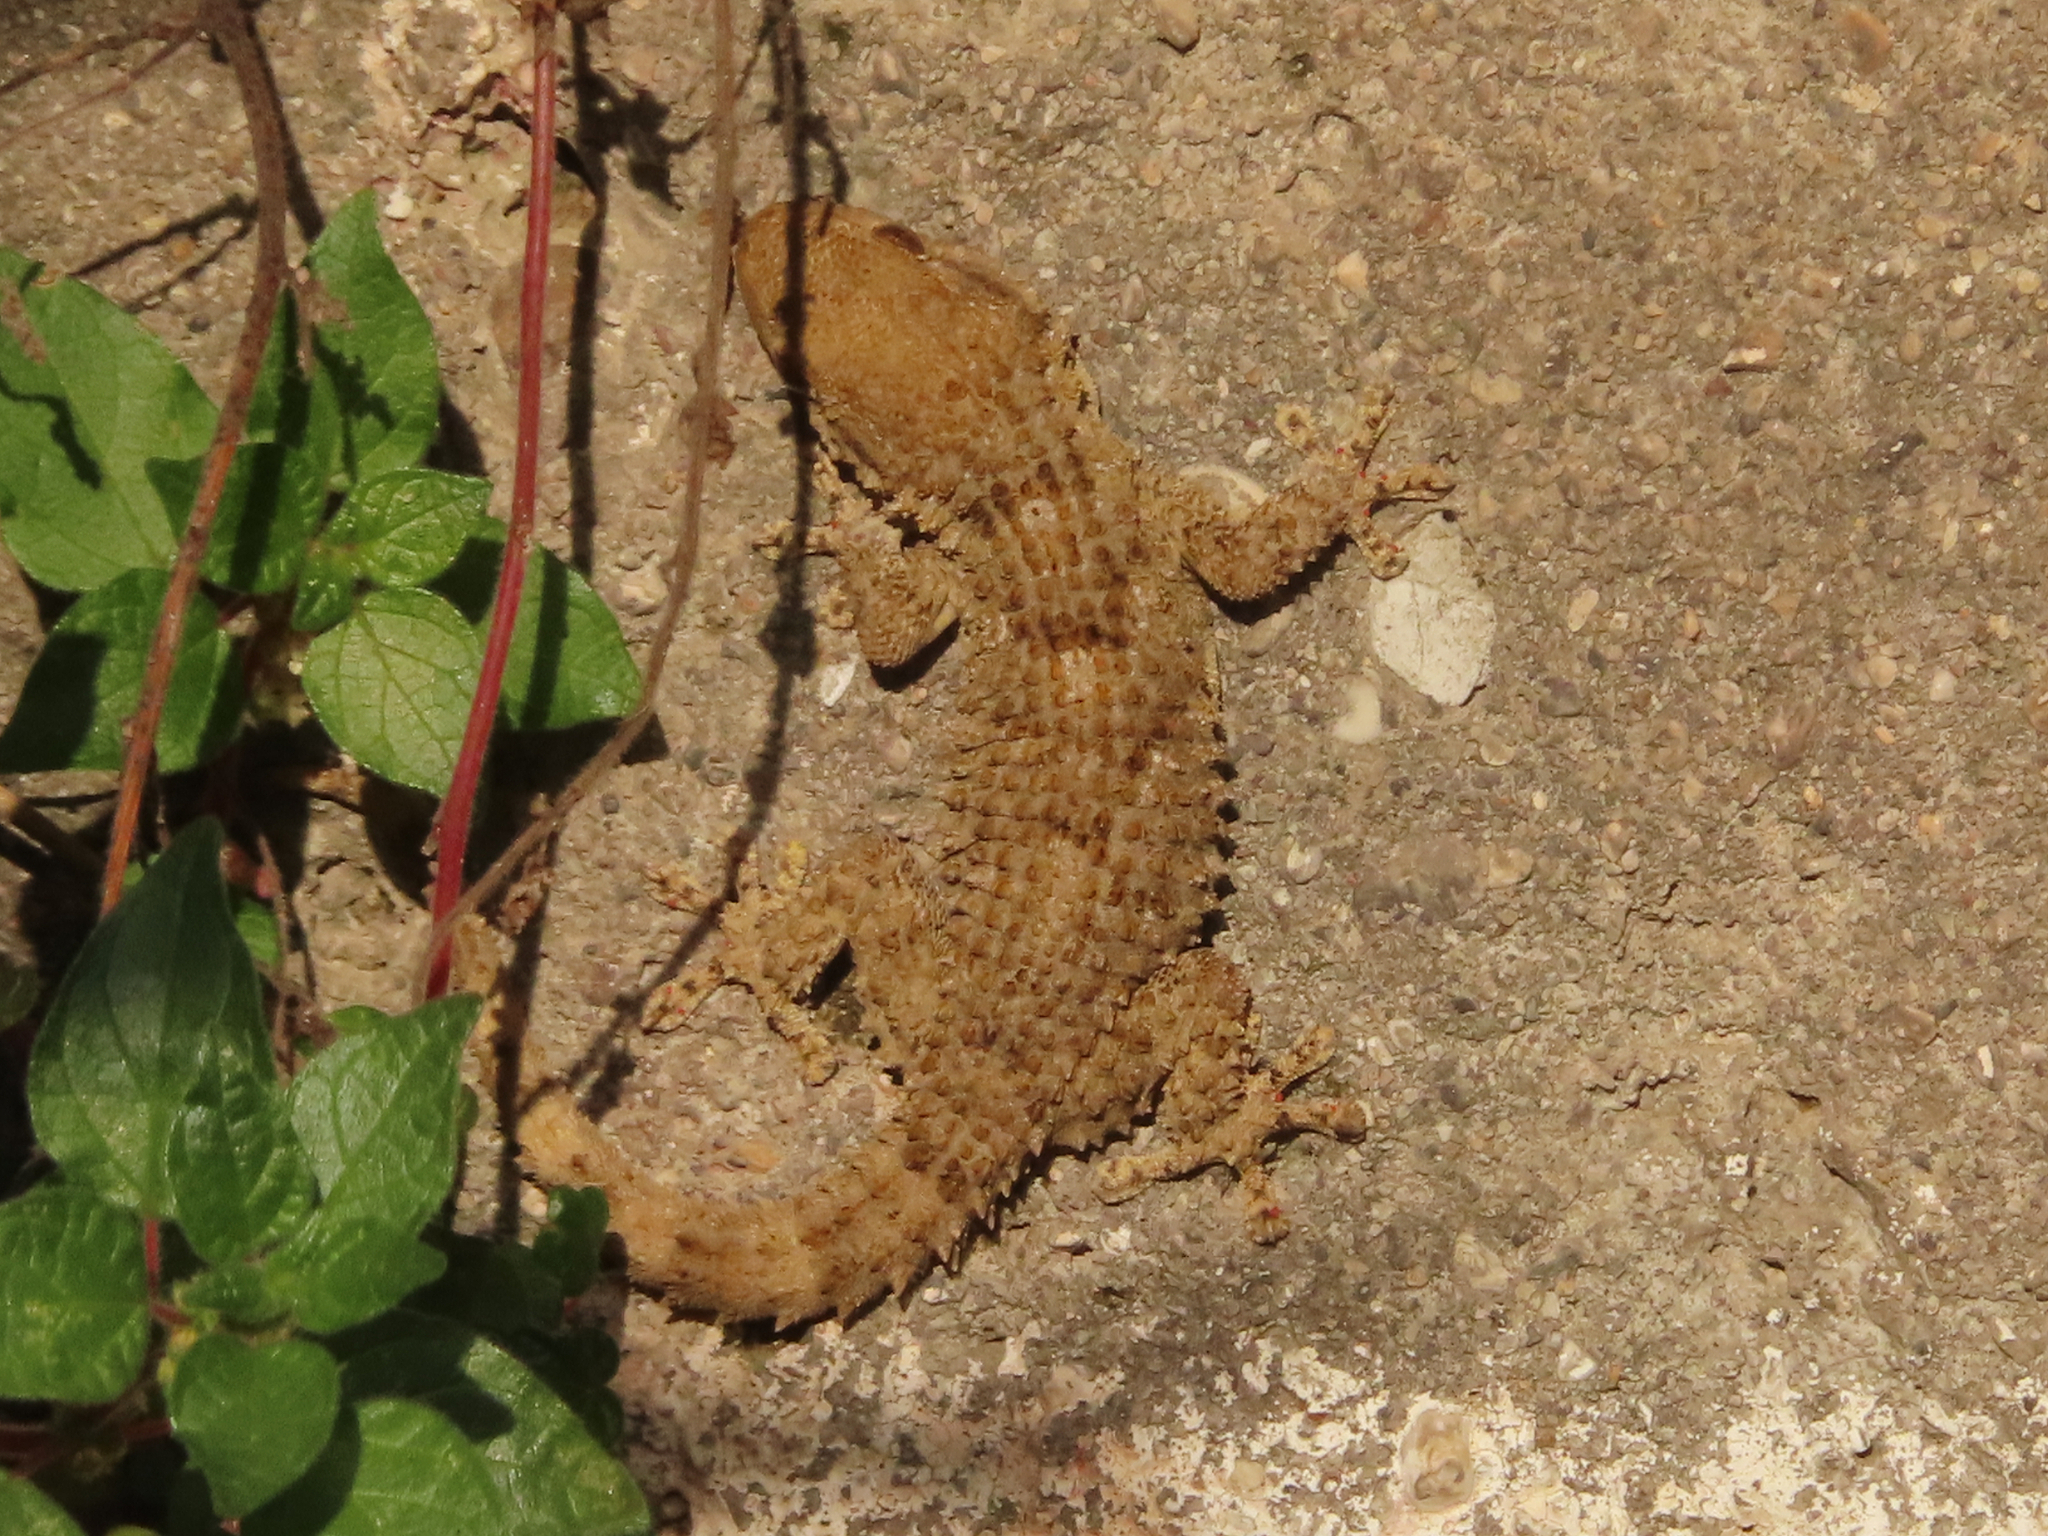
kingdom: Animalia
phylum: Chordata
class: Squamata
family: Phyllodactylidae
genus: Tarentola
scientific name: Tarentola mauritanica
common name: Moorish gecko
